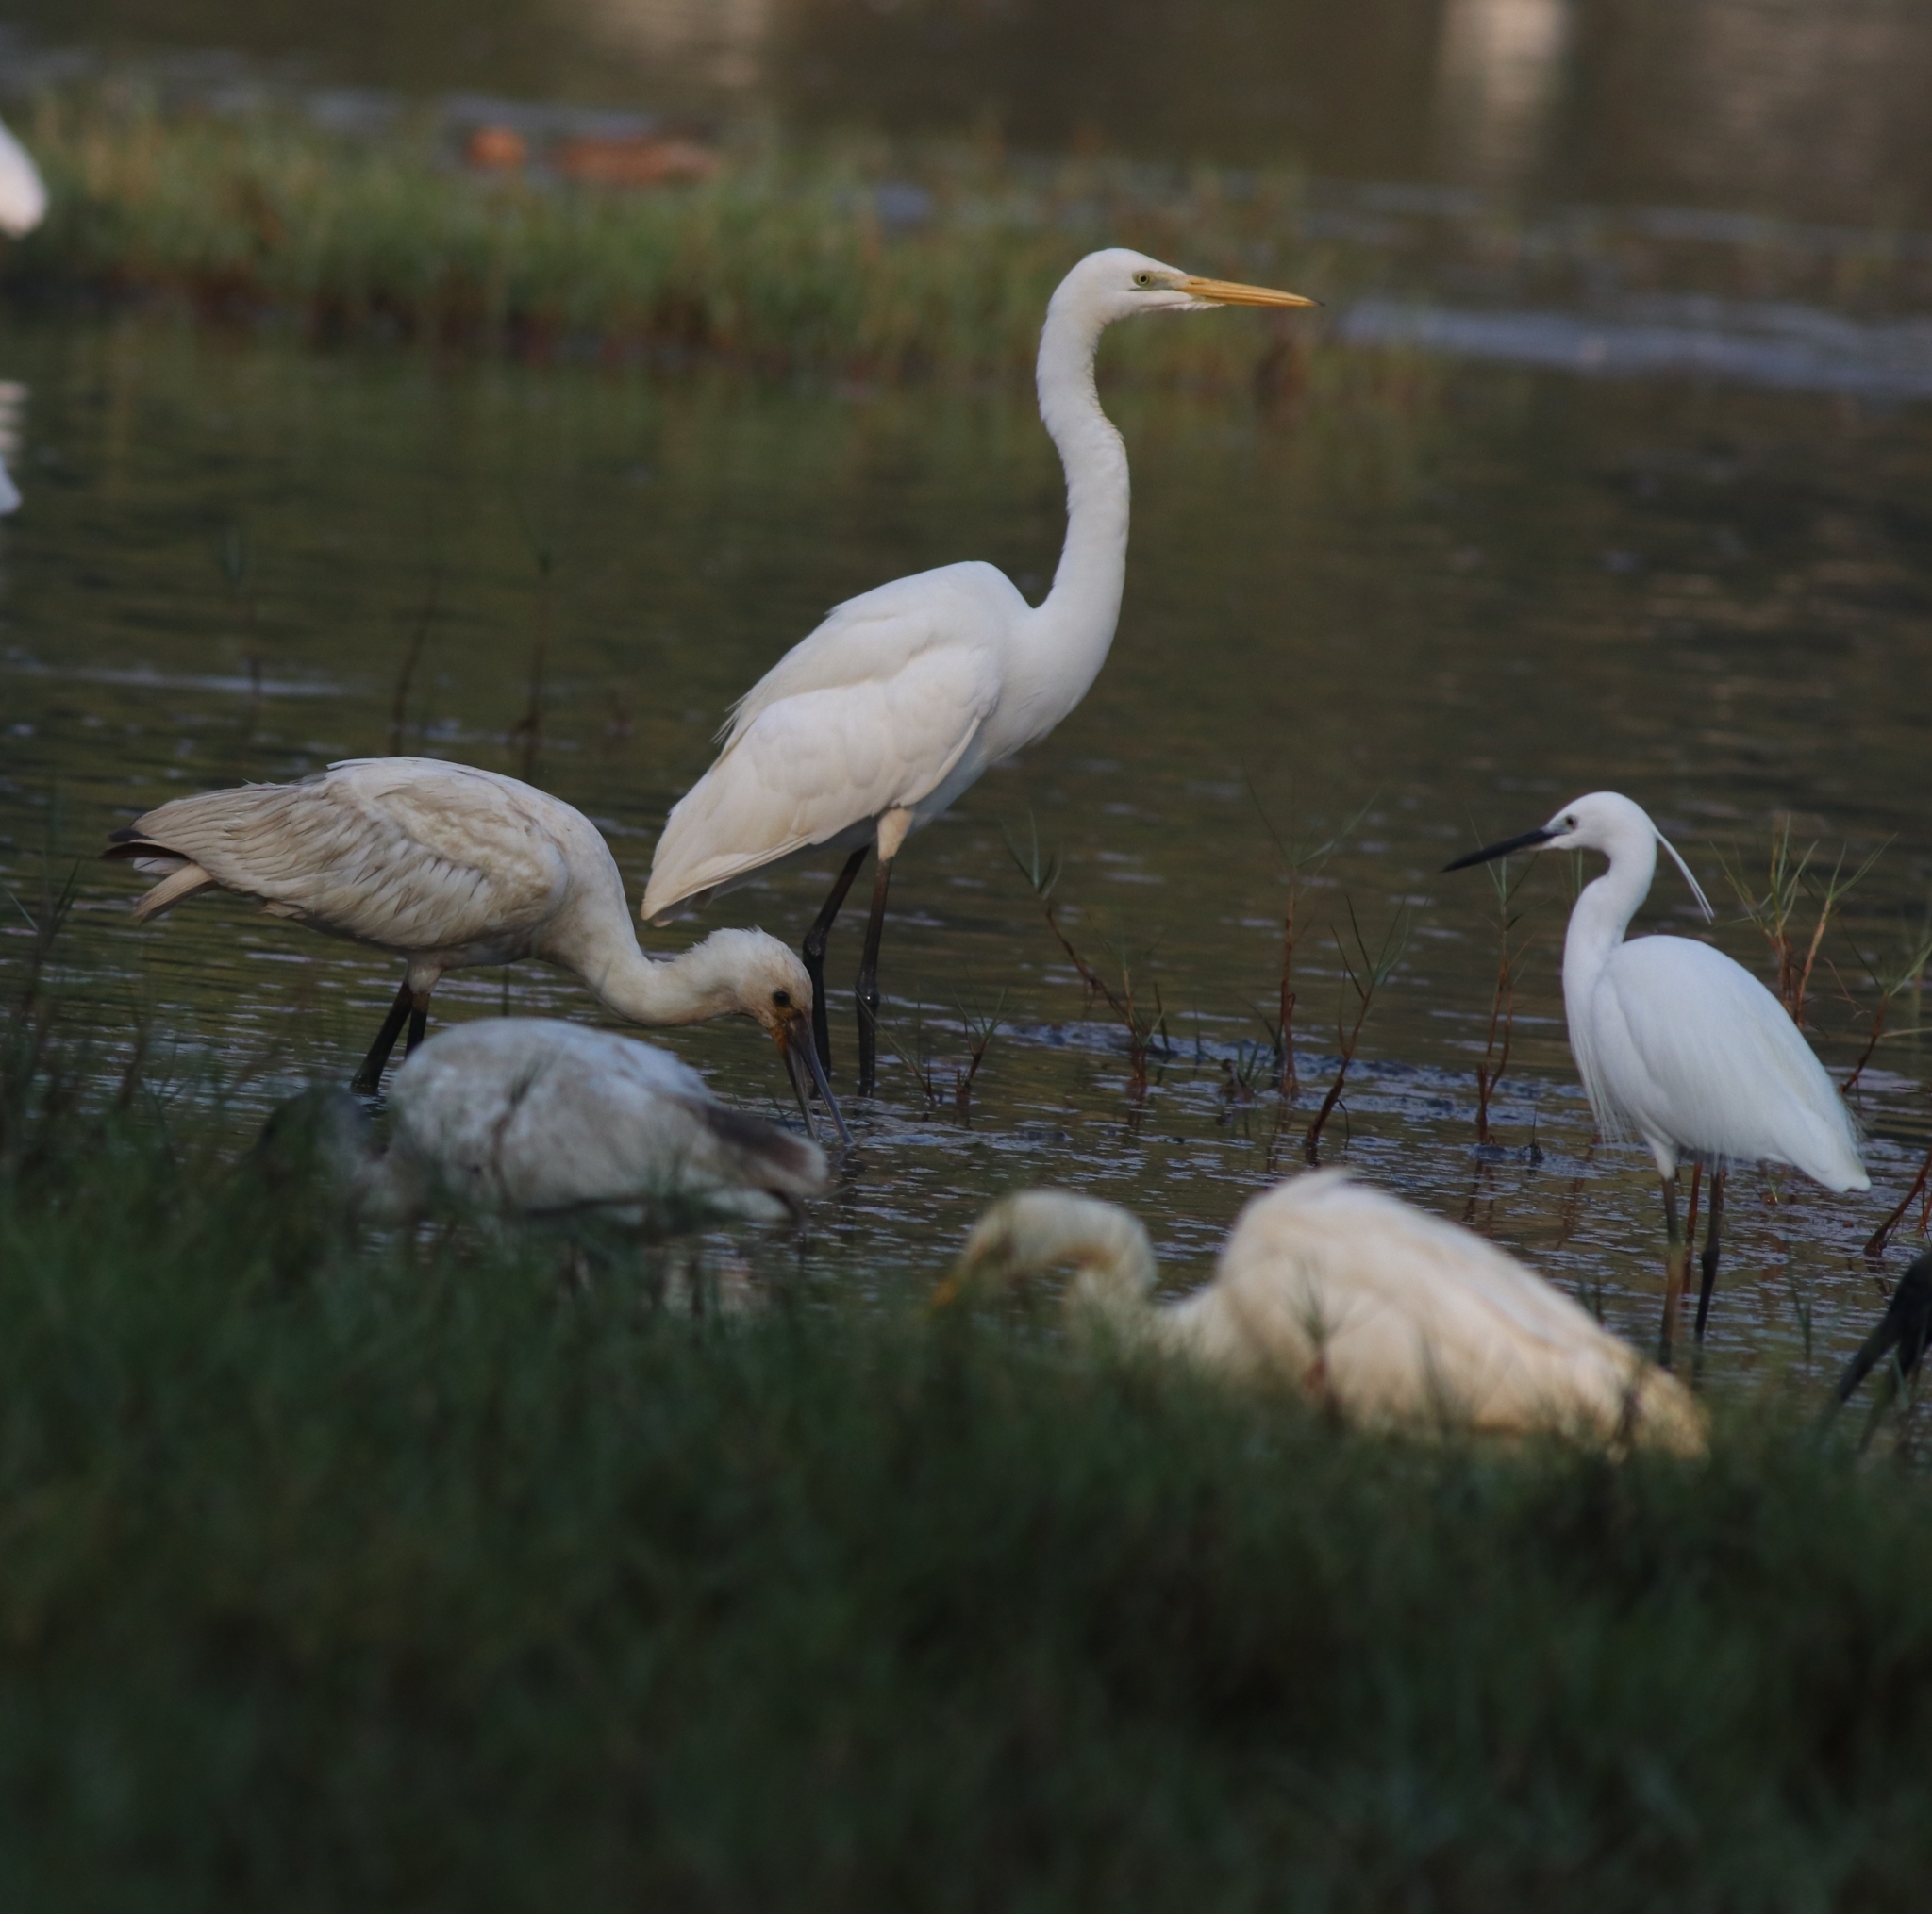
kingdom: Animalia
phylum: Chordata
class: Aves
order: Pelecaniformes
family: Ardeidae
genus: Egretta
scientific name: Egretta garzetta
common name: Little egret
